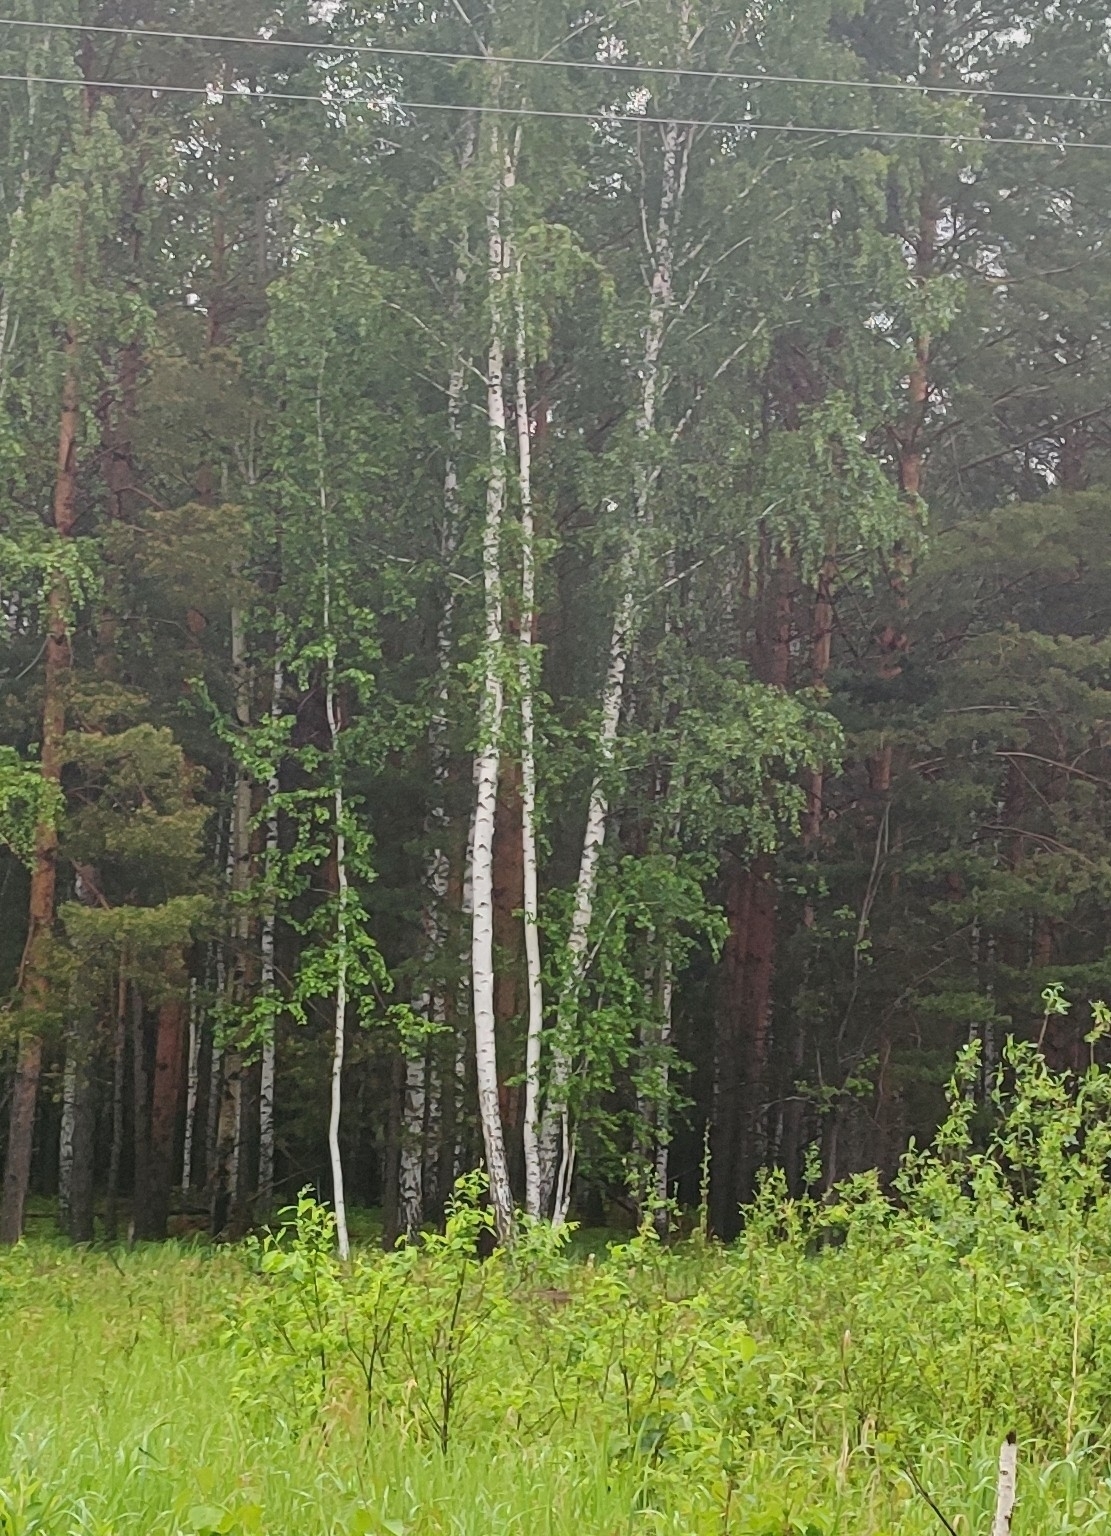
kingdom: Plantae
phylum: Tracheophyta
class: Magnoliopsida
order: Fagales
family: Betulaceae
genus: Betula
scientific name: Betula pendula
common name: Silver birch
